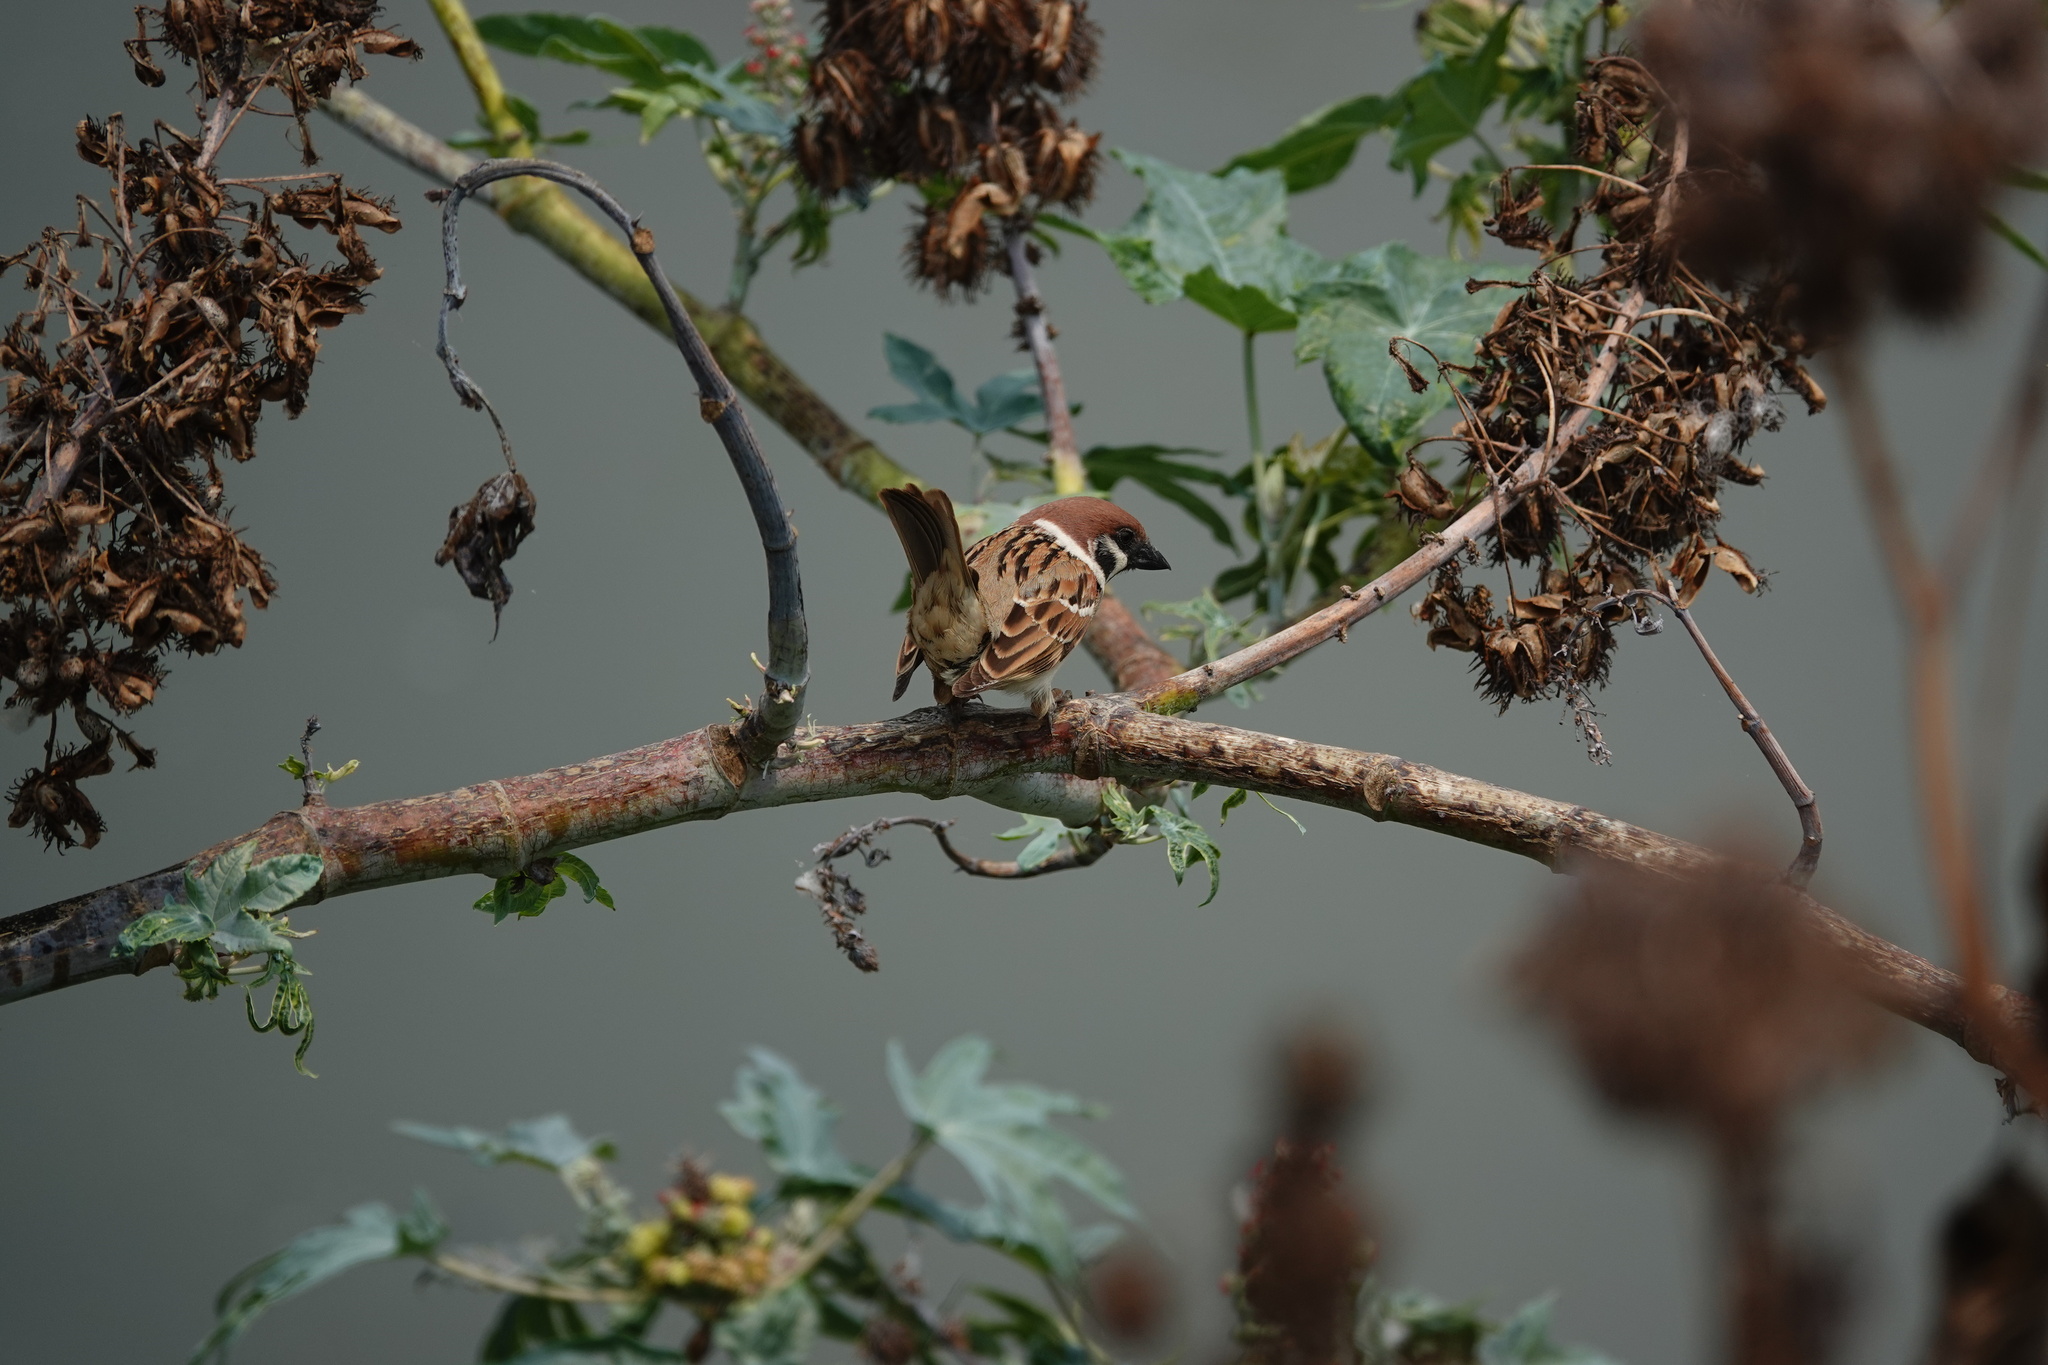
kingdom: Animalia
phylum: Chordata
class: Aves
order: Passeriformes
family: Passeridae
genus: Passer
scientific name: Passer montanus
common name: Eurasian tree sparrow
